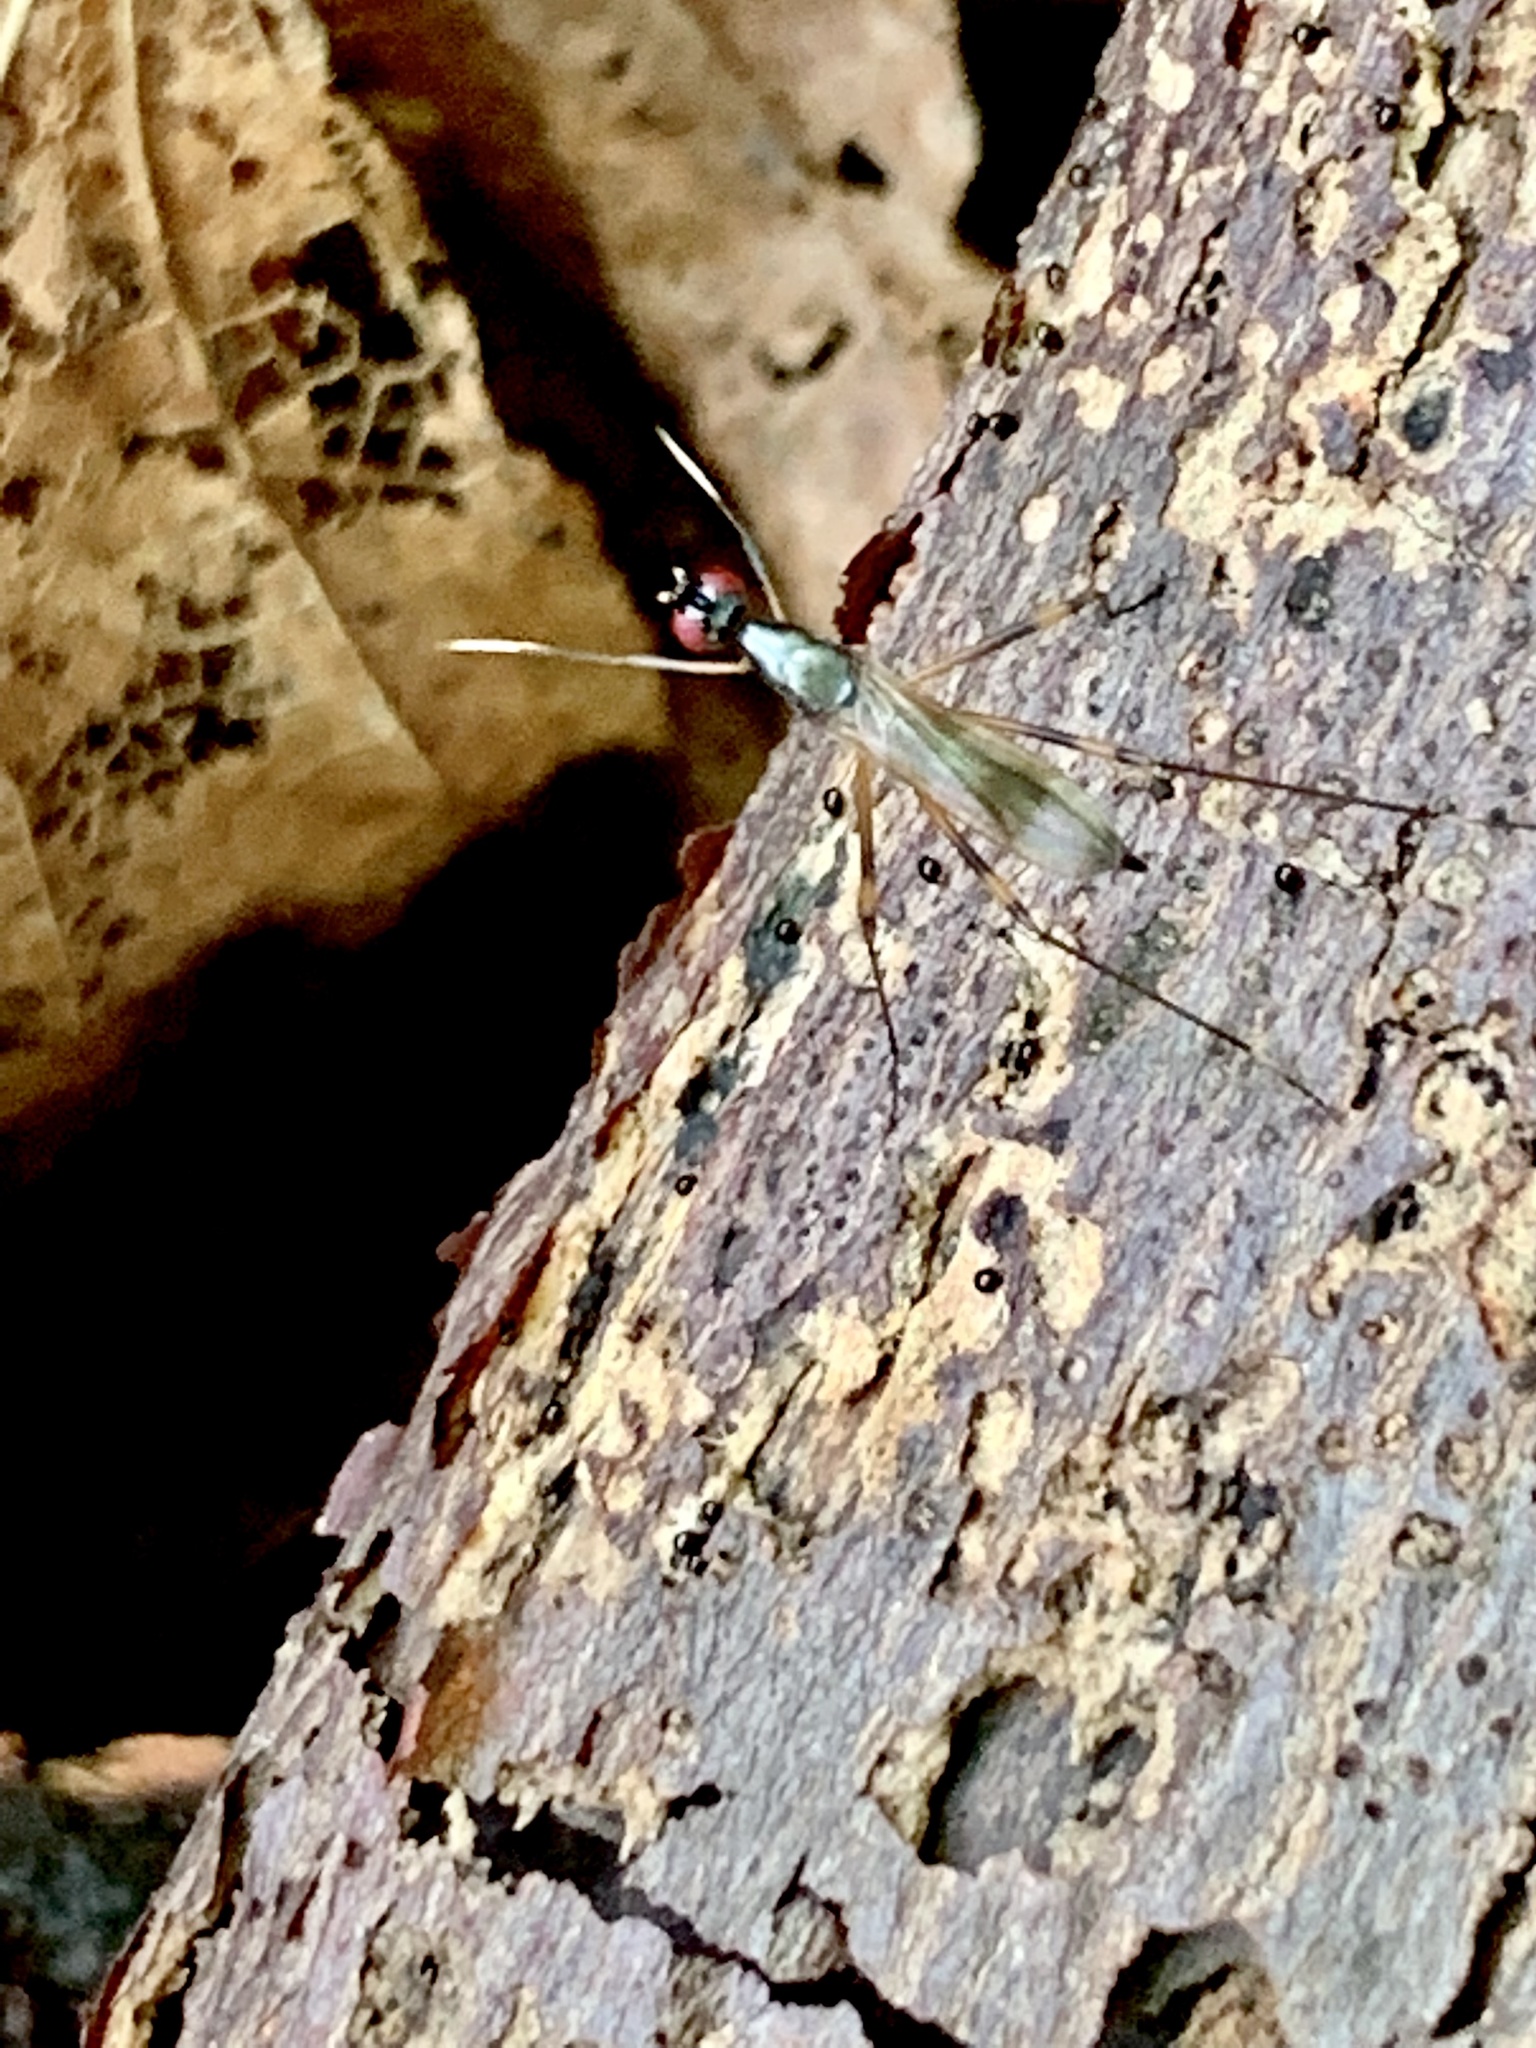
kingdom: Animalia
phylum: Arthropoda
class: Insecta
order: Diptera
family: Micropezidae
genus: Rainieria
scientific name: Rainieria antennaepes
